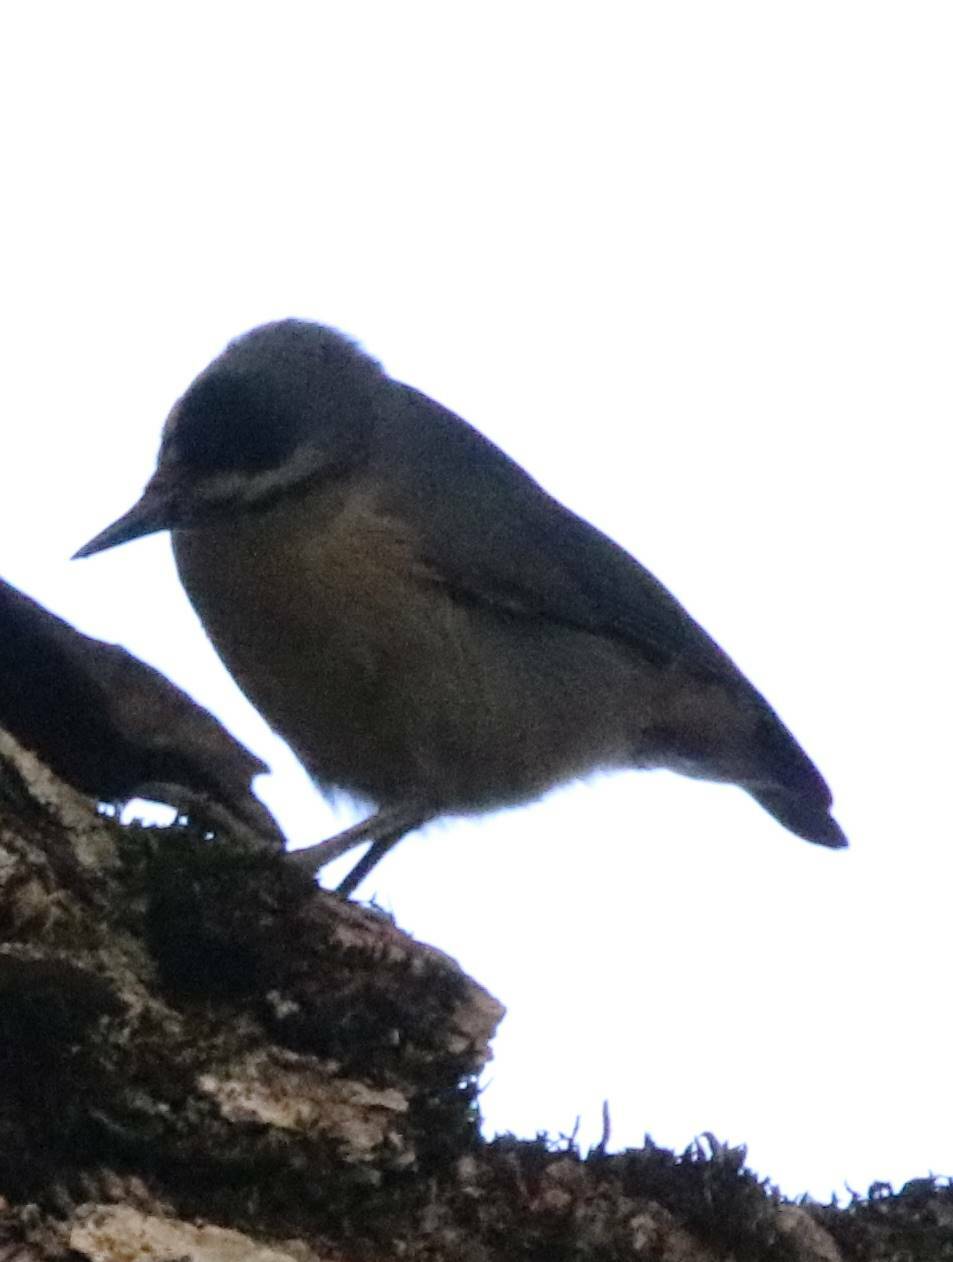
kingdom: Animalia
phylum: Chordata
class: Aves
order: Passeriformes
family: Sittidae
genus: Sitta
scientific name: Sitta ledanti
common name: Algerian nuthatch
